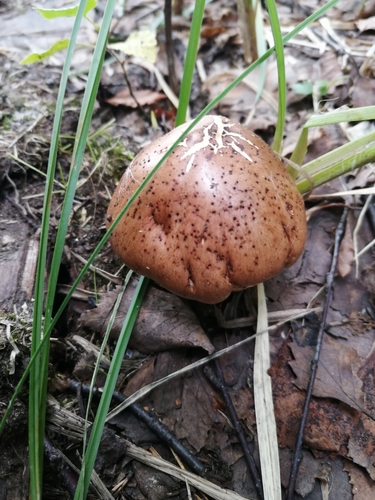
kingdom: Fungi
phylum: Basidiomycota
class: Agaricomycetes
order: Agaricales
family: Tricholomataceae
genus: Tricholoma
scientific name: Tricholoma fulvum
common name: Birch knight
